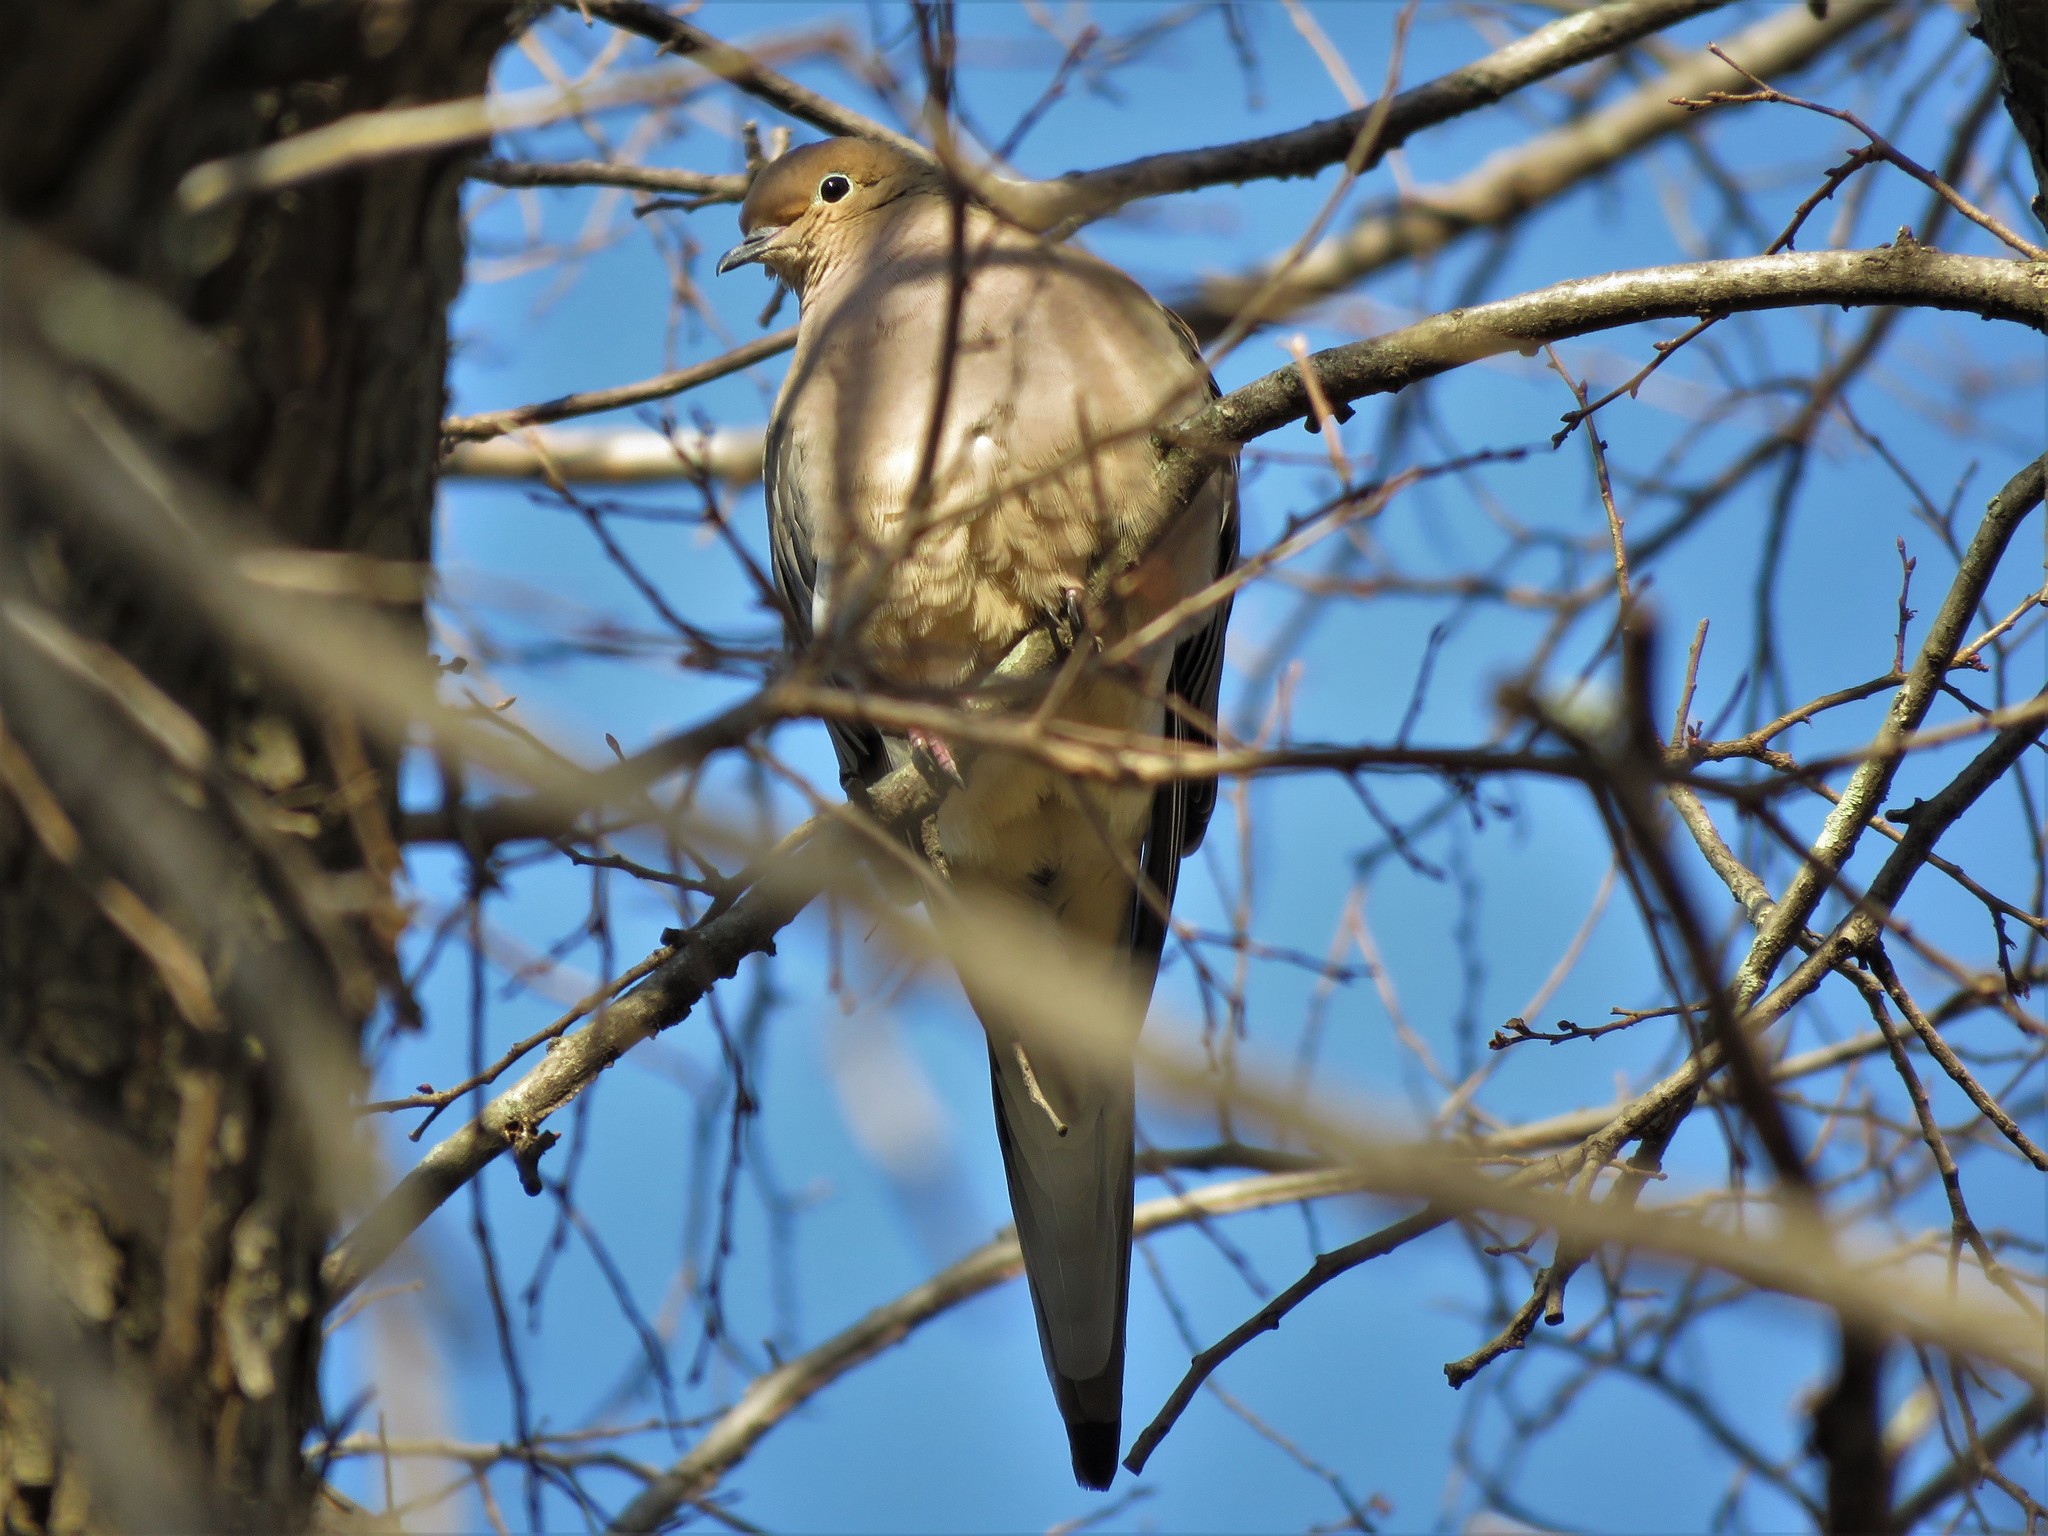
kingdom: Animalia
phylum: Chordata
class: Aves
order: Columbiformes
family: Columbidae
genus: Zenaida
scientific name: Zenaida macroura
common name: Mourning dove
